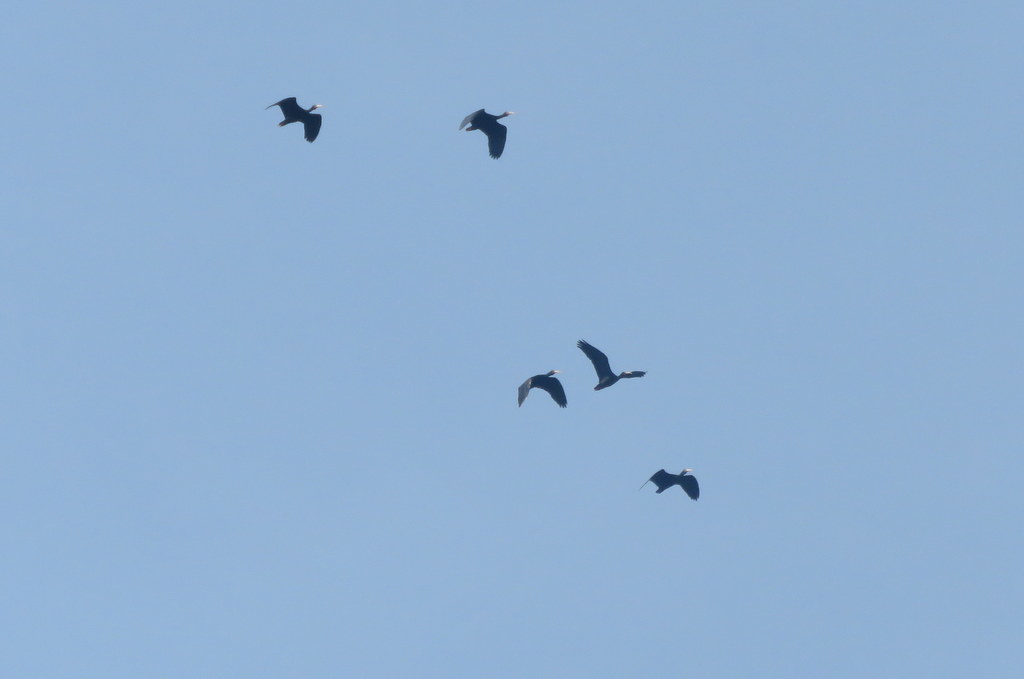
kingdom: Animalia
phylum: Chordata
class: Aves
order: Pelecaniformes
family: Threskiornithidae
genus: Phimosus
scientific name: Phimosus infuscatus
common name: Bare-faced ibis
